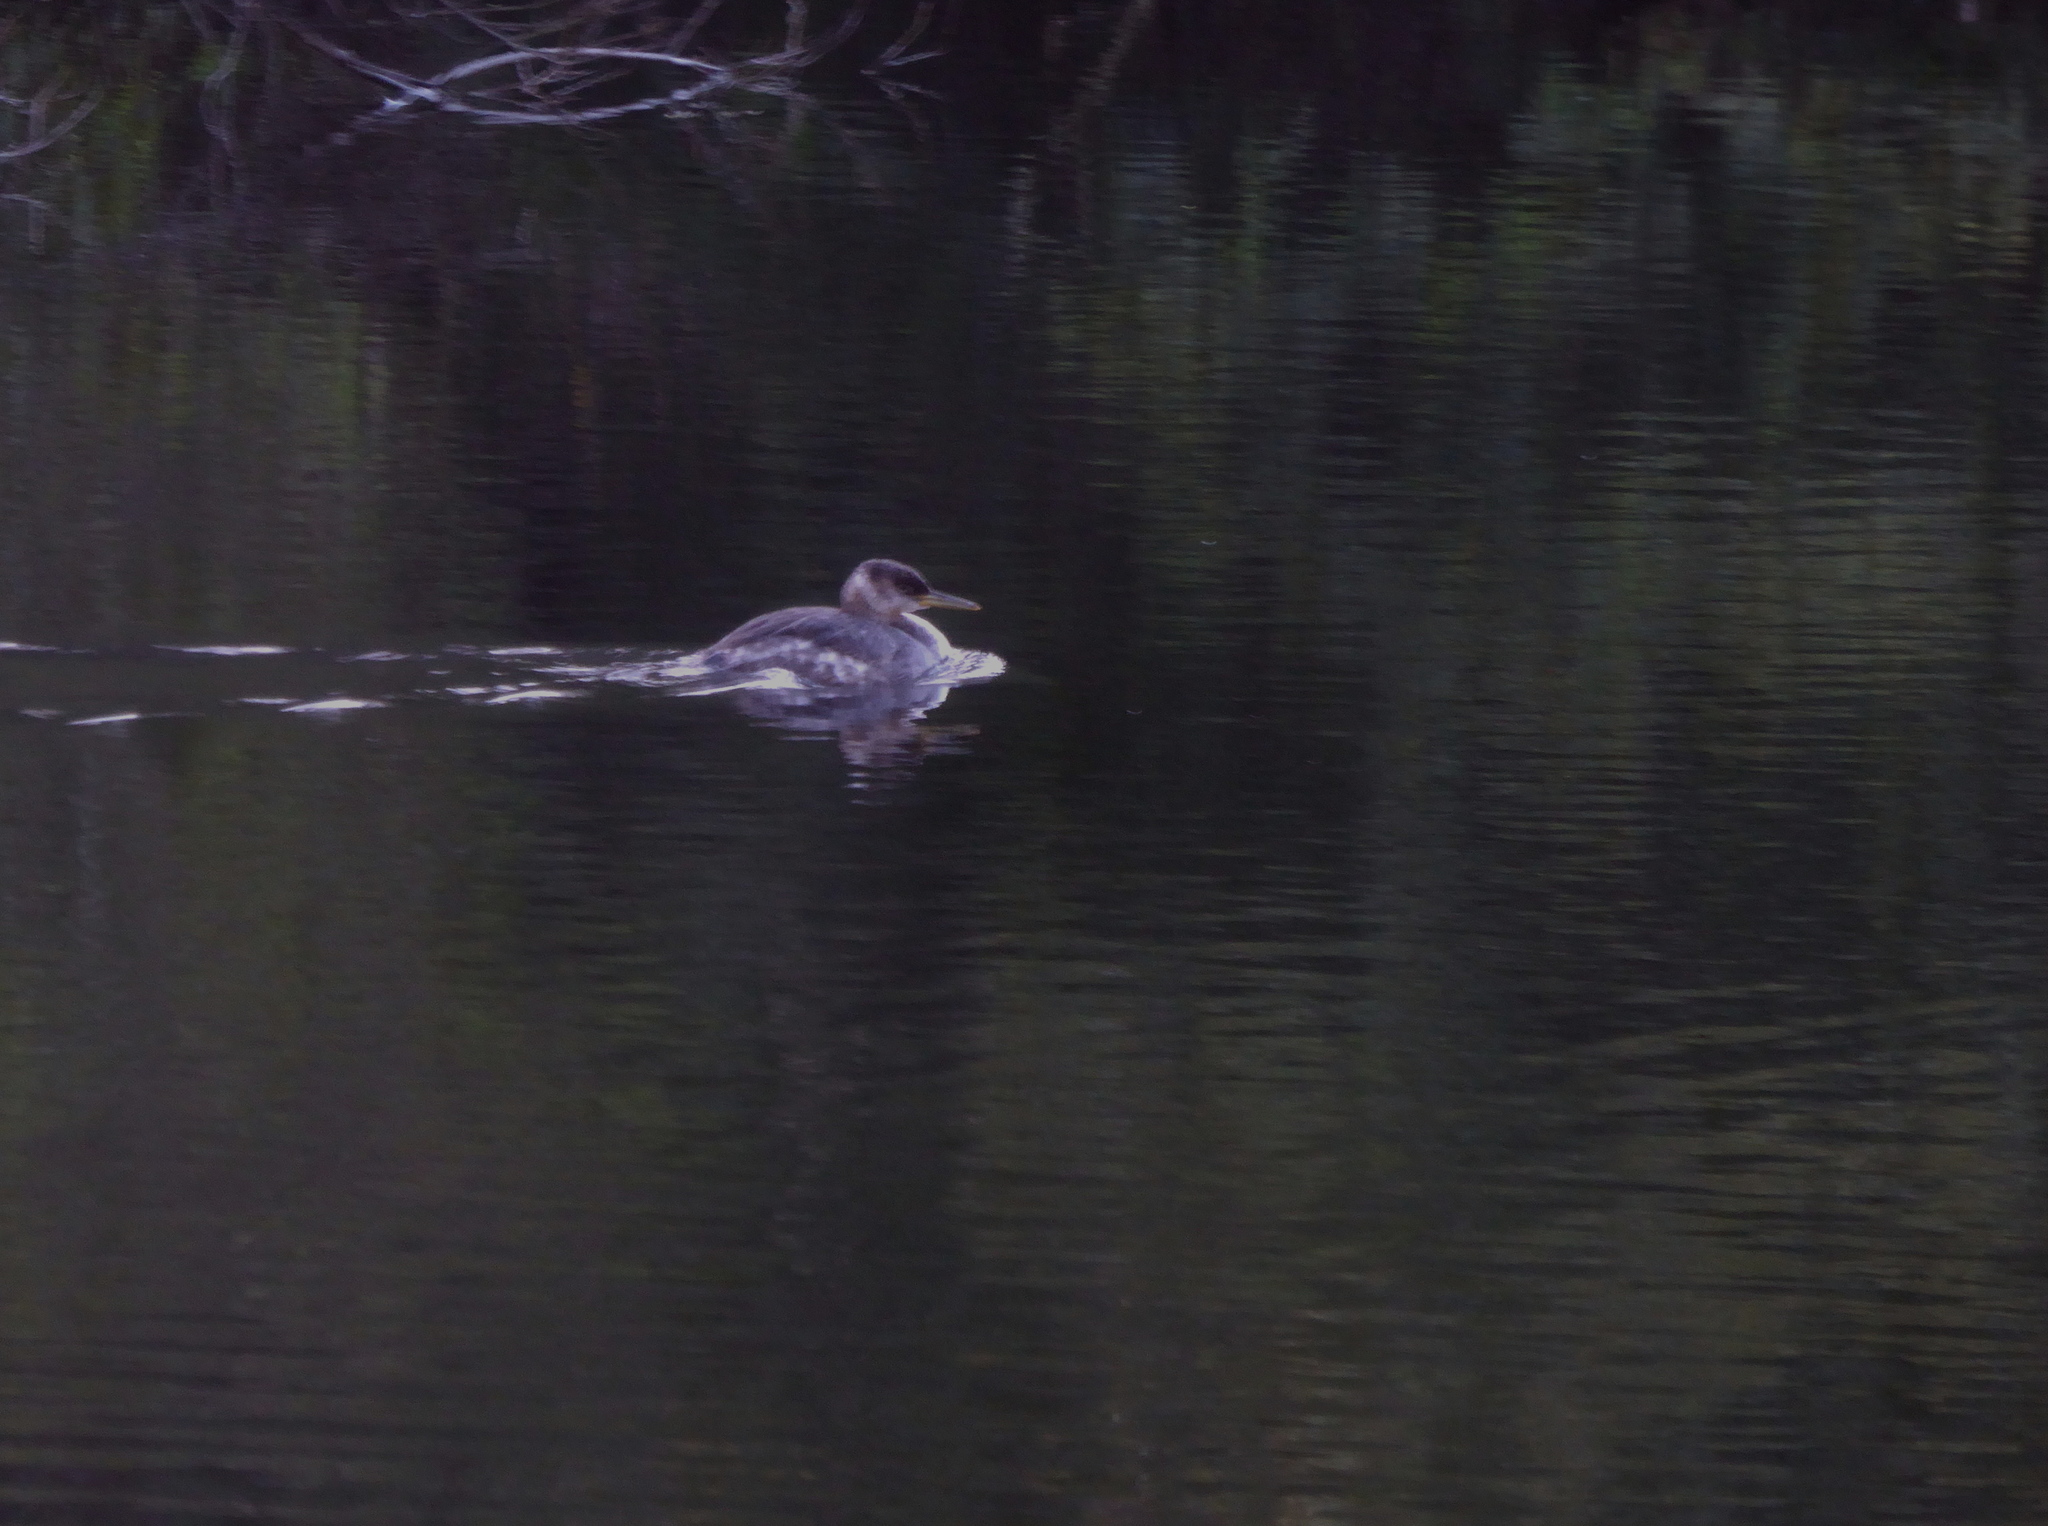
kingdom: Animalia
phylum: Chordata
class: Aves
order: Podicipediformes
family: Podicipedidae
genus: Podiceps
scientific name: Podiceps grisegena
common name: Red-necked grebe
